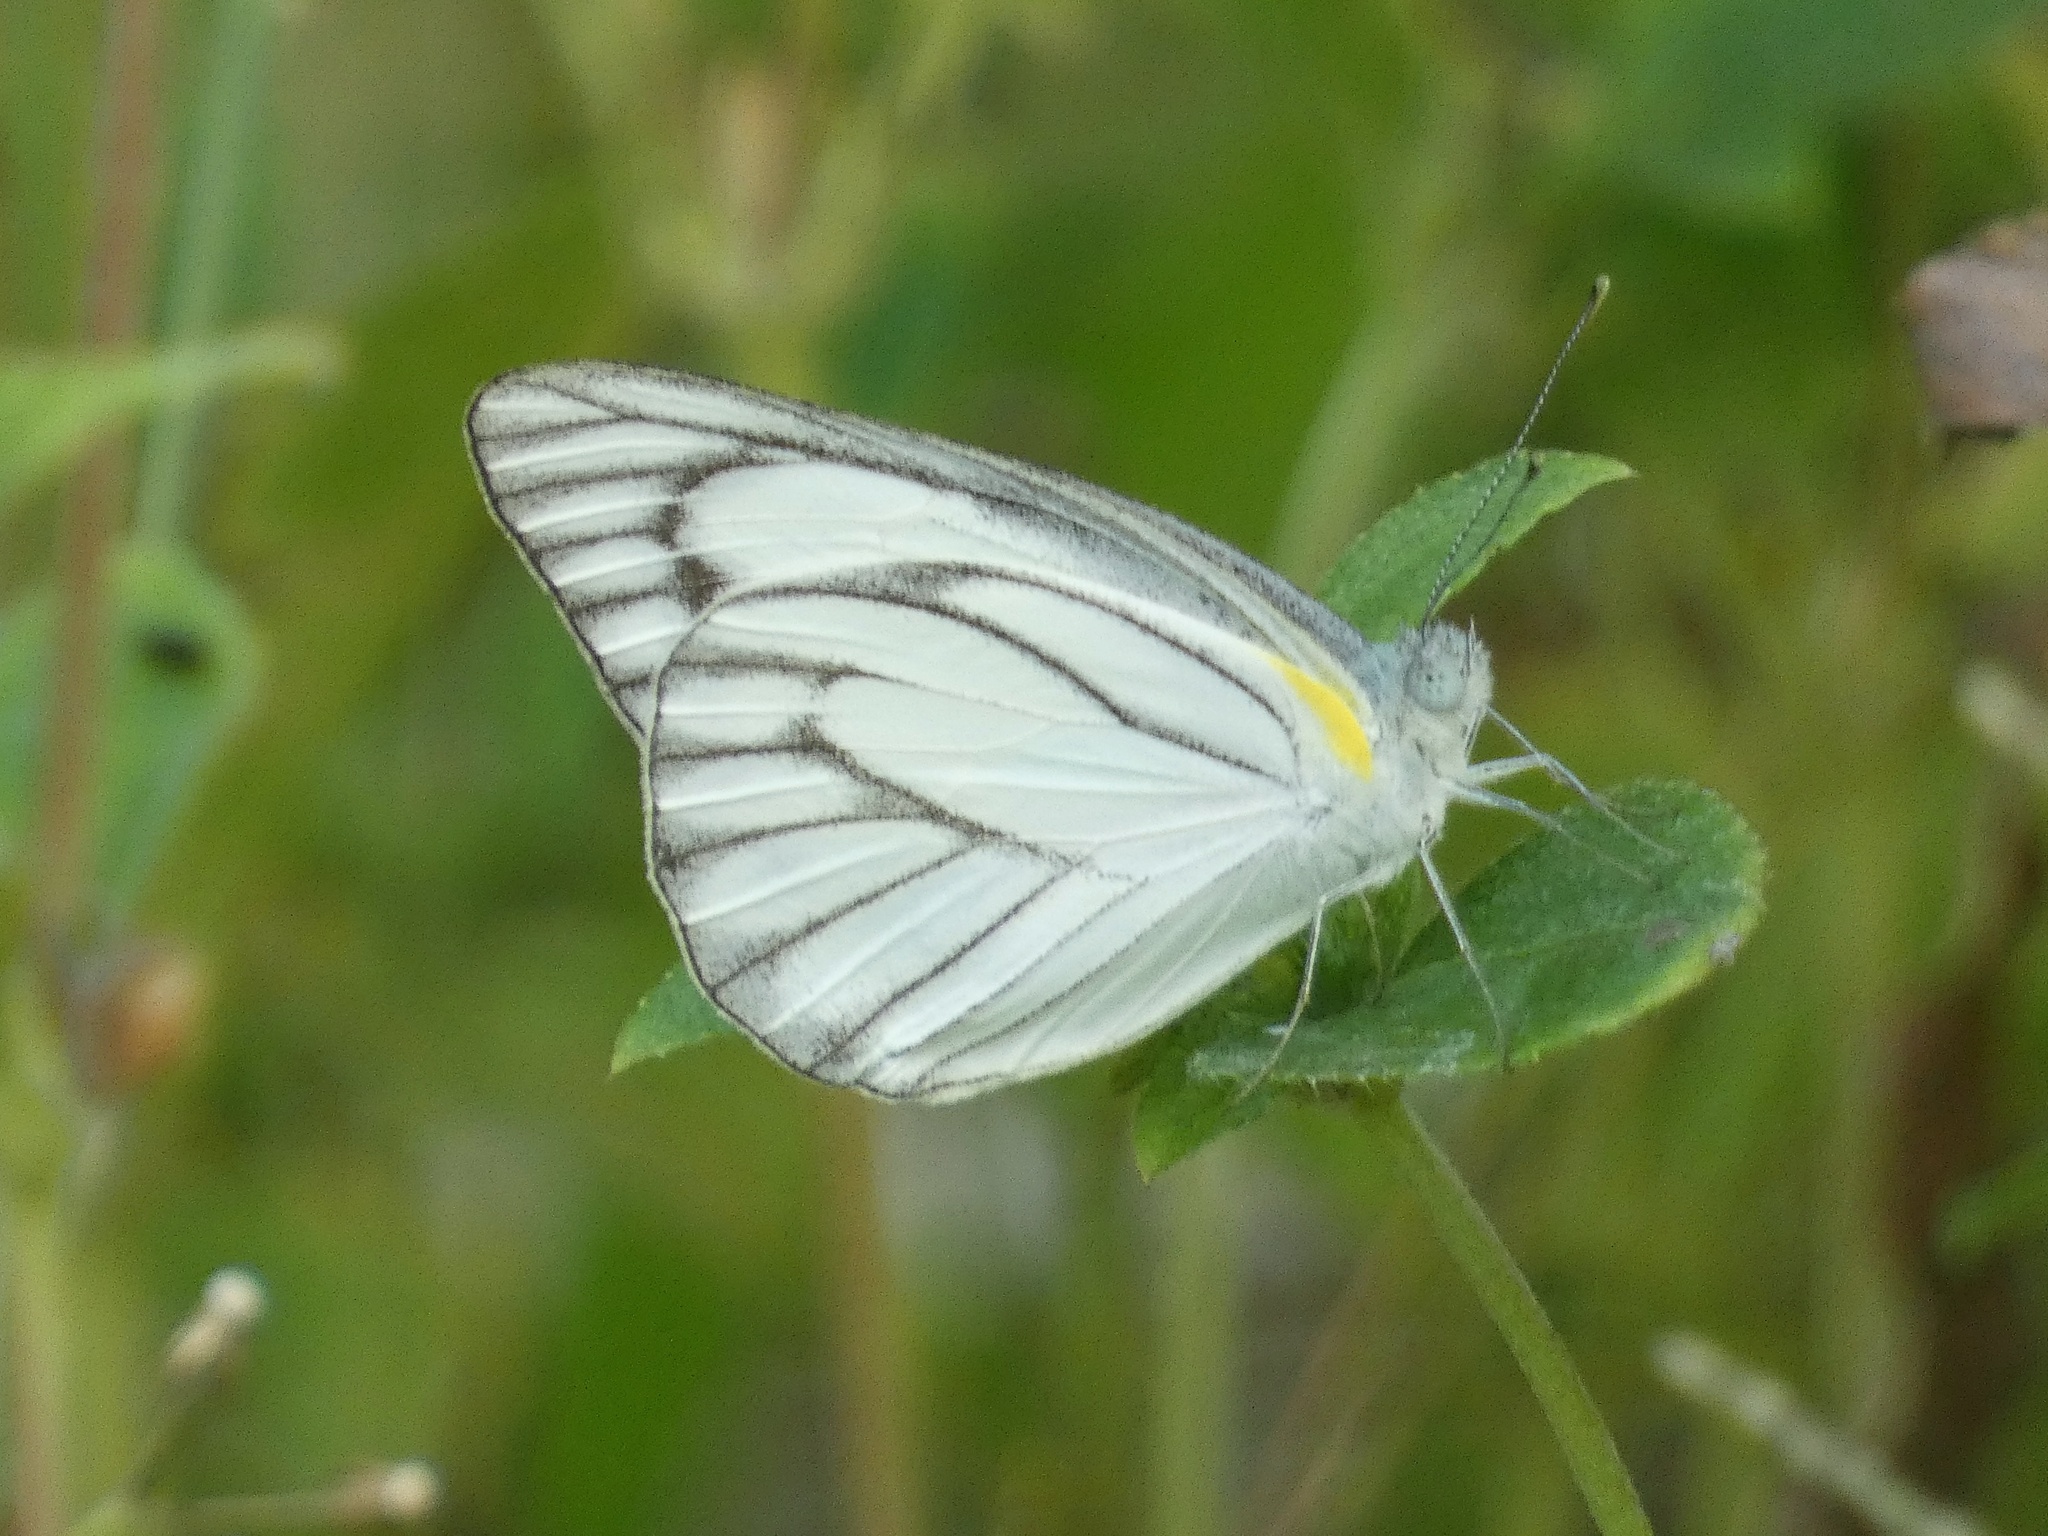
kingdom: Animalia
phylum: Arthropoda
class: Insecta
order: Lepidoptera
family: Pieridae
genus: Appias
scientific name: Appias libythea
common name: Striped albatross
